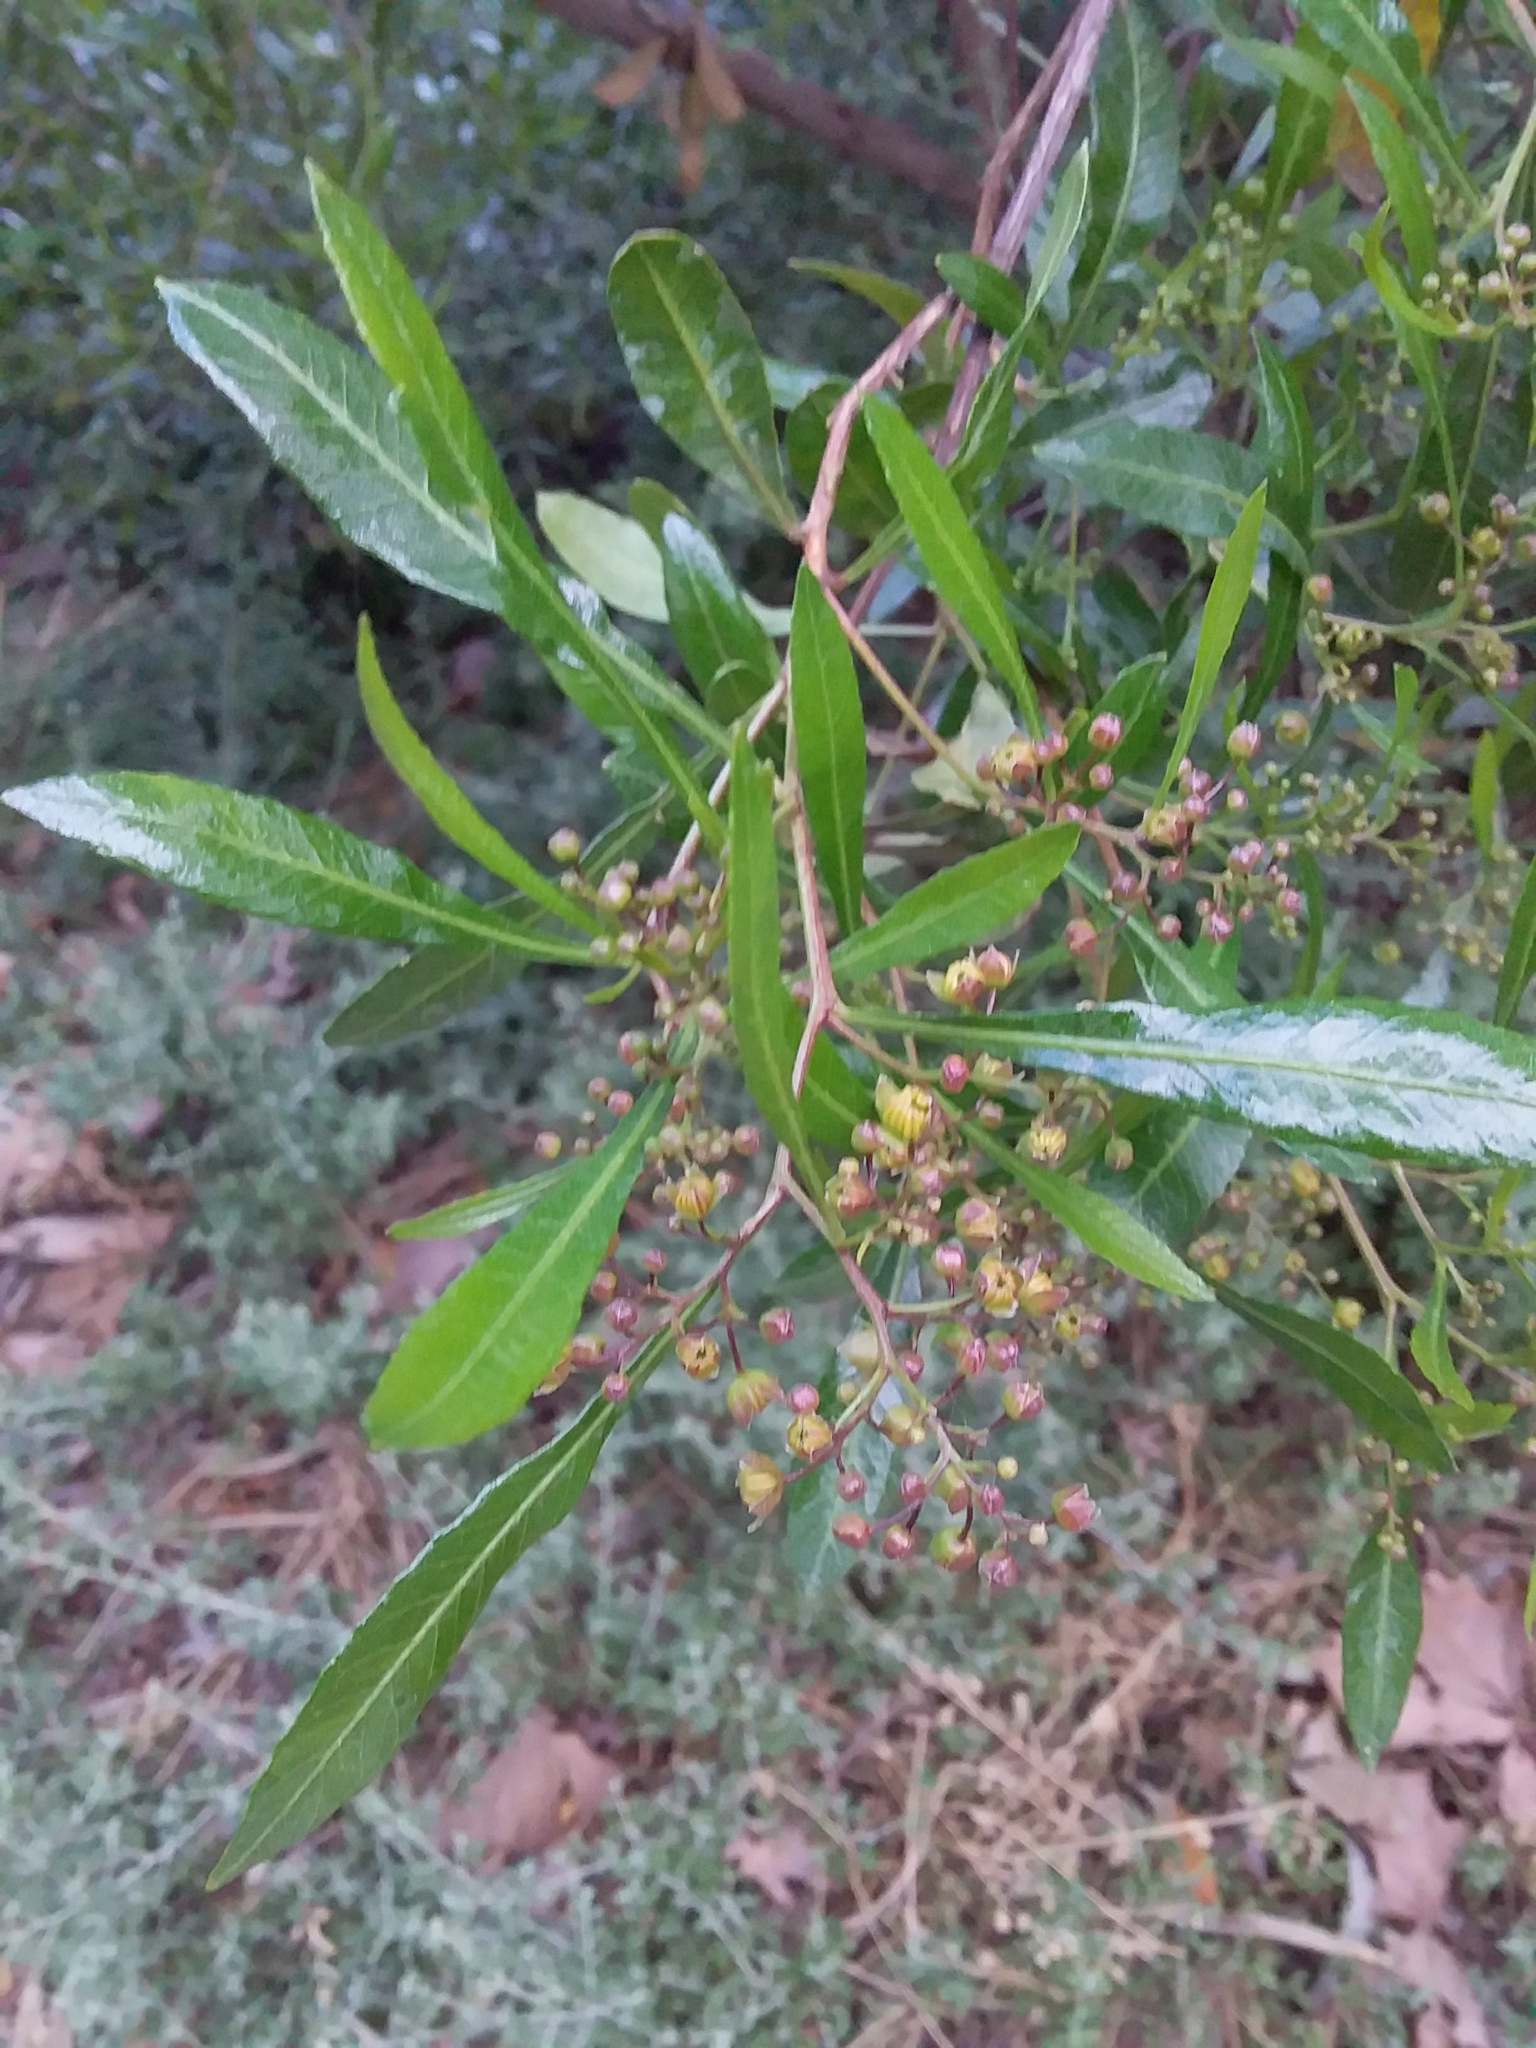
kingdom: Plantae
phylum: Tracheophyta
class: Magnoliopsida
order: Sapindales
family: Sapindaceae
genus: Dodonaea
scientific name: Dodonaea viscosa
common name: Hopbush
